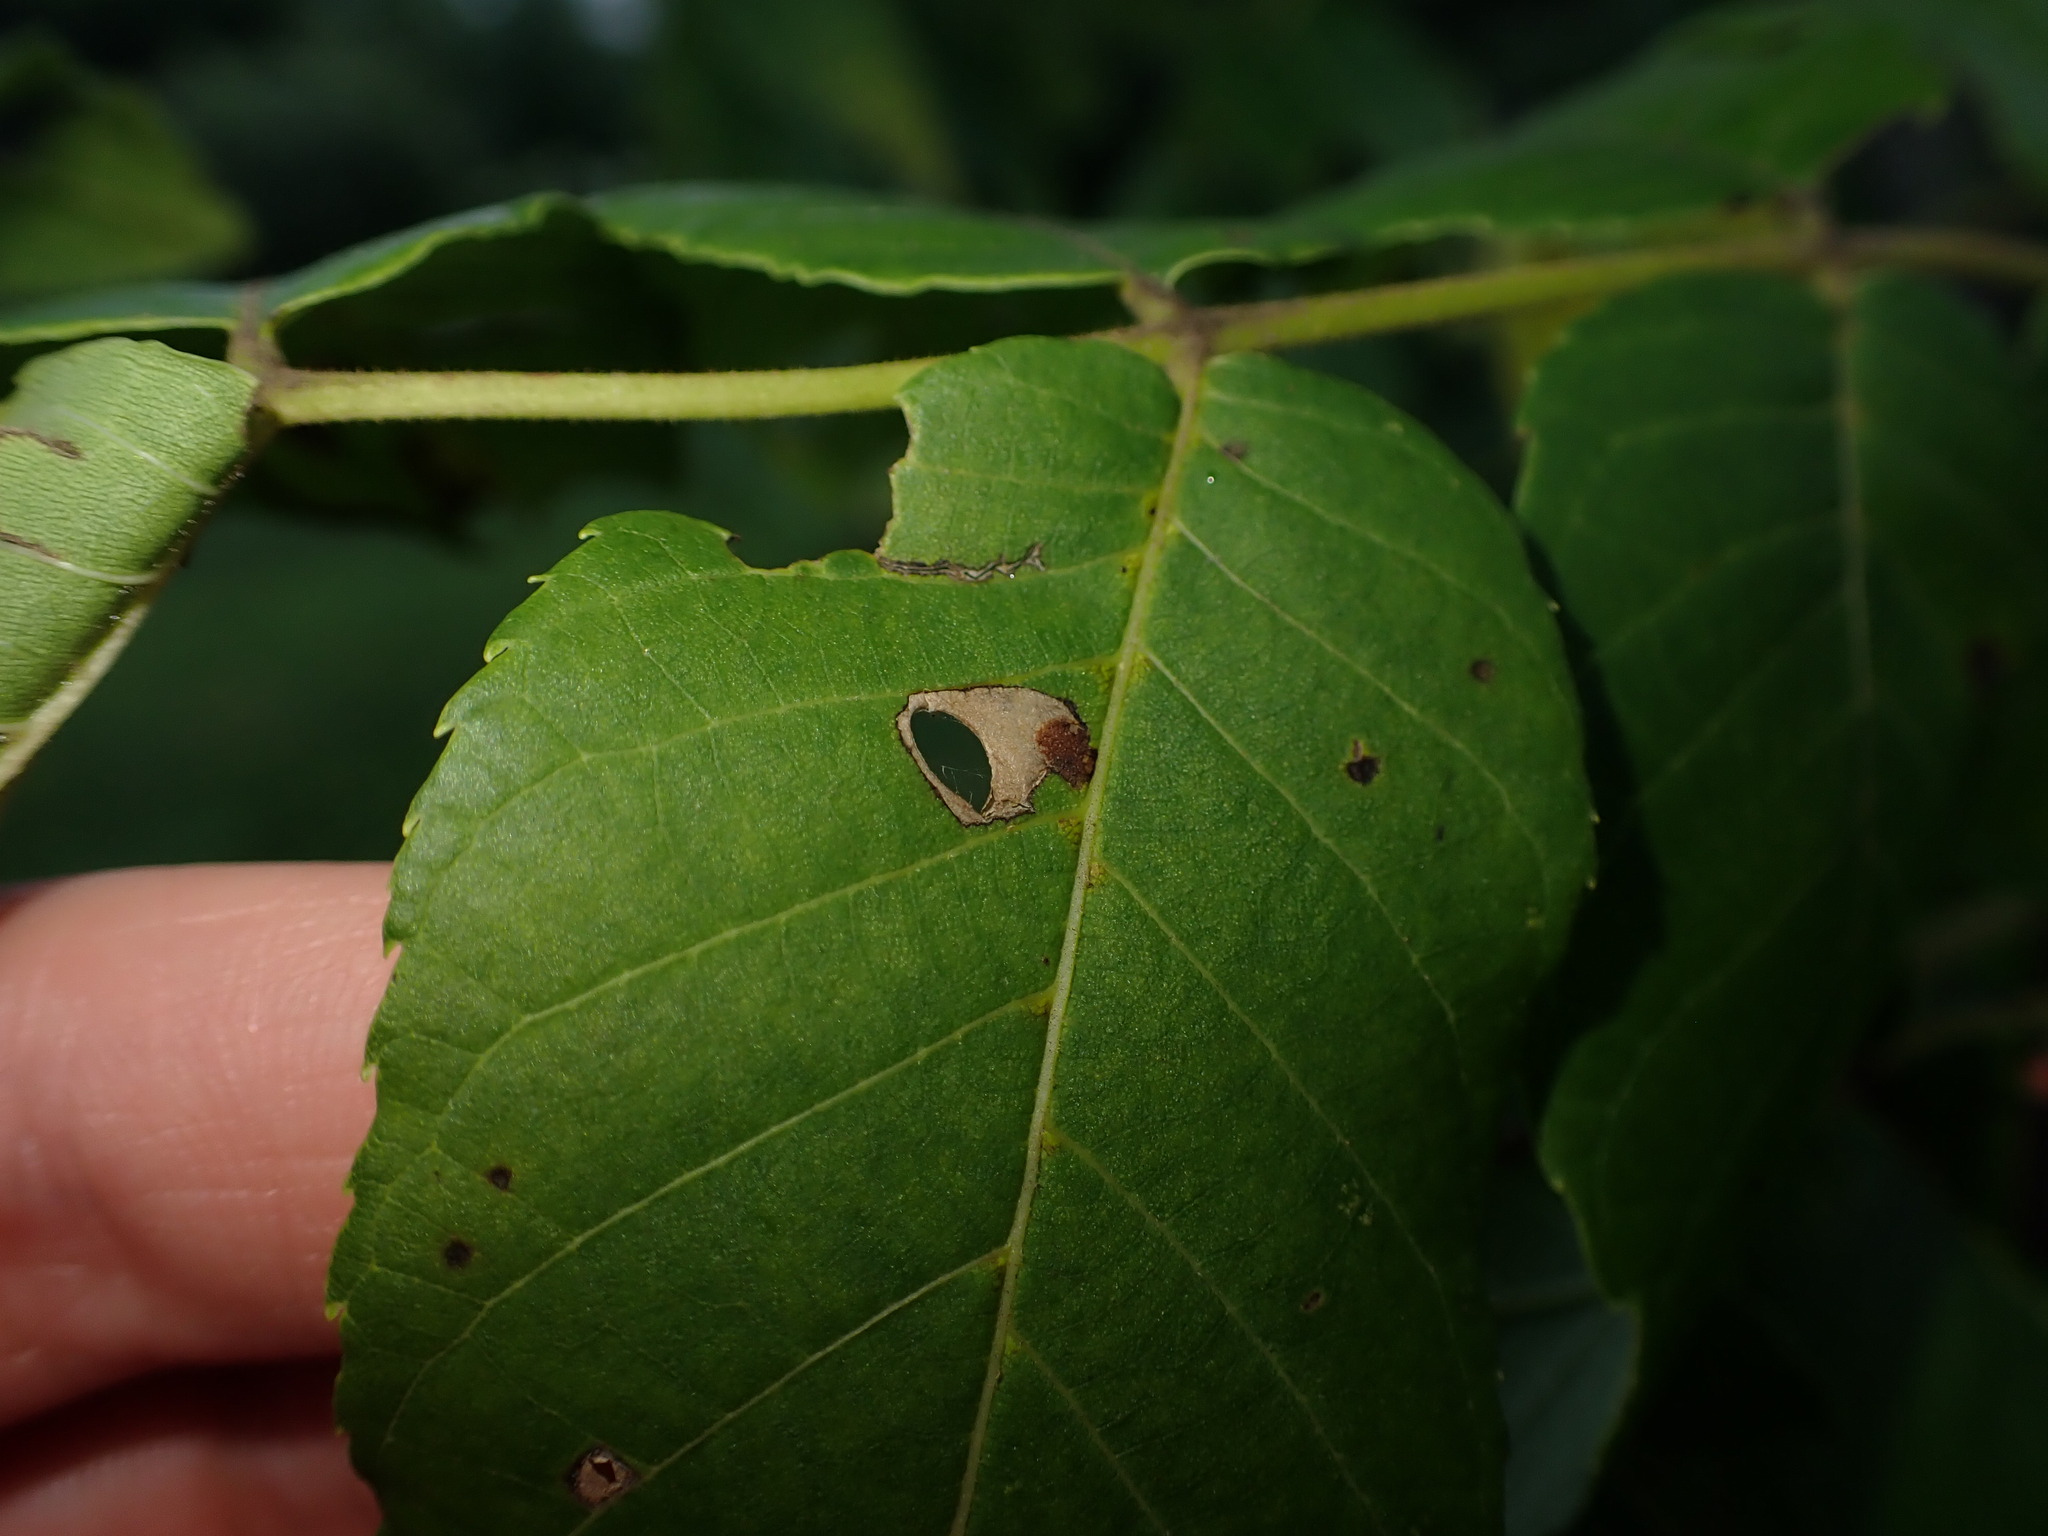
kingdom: Animalia
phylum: Arthropoda
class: Insecta
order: Lepidoptera
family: Heliozelidae
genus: Coptodisca
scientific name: Coptodisca juglandiella
